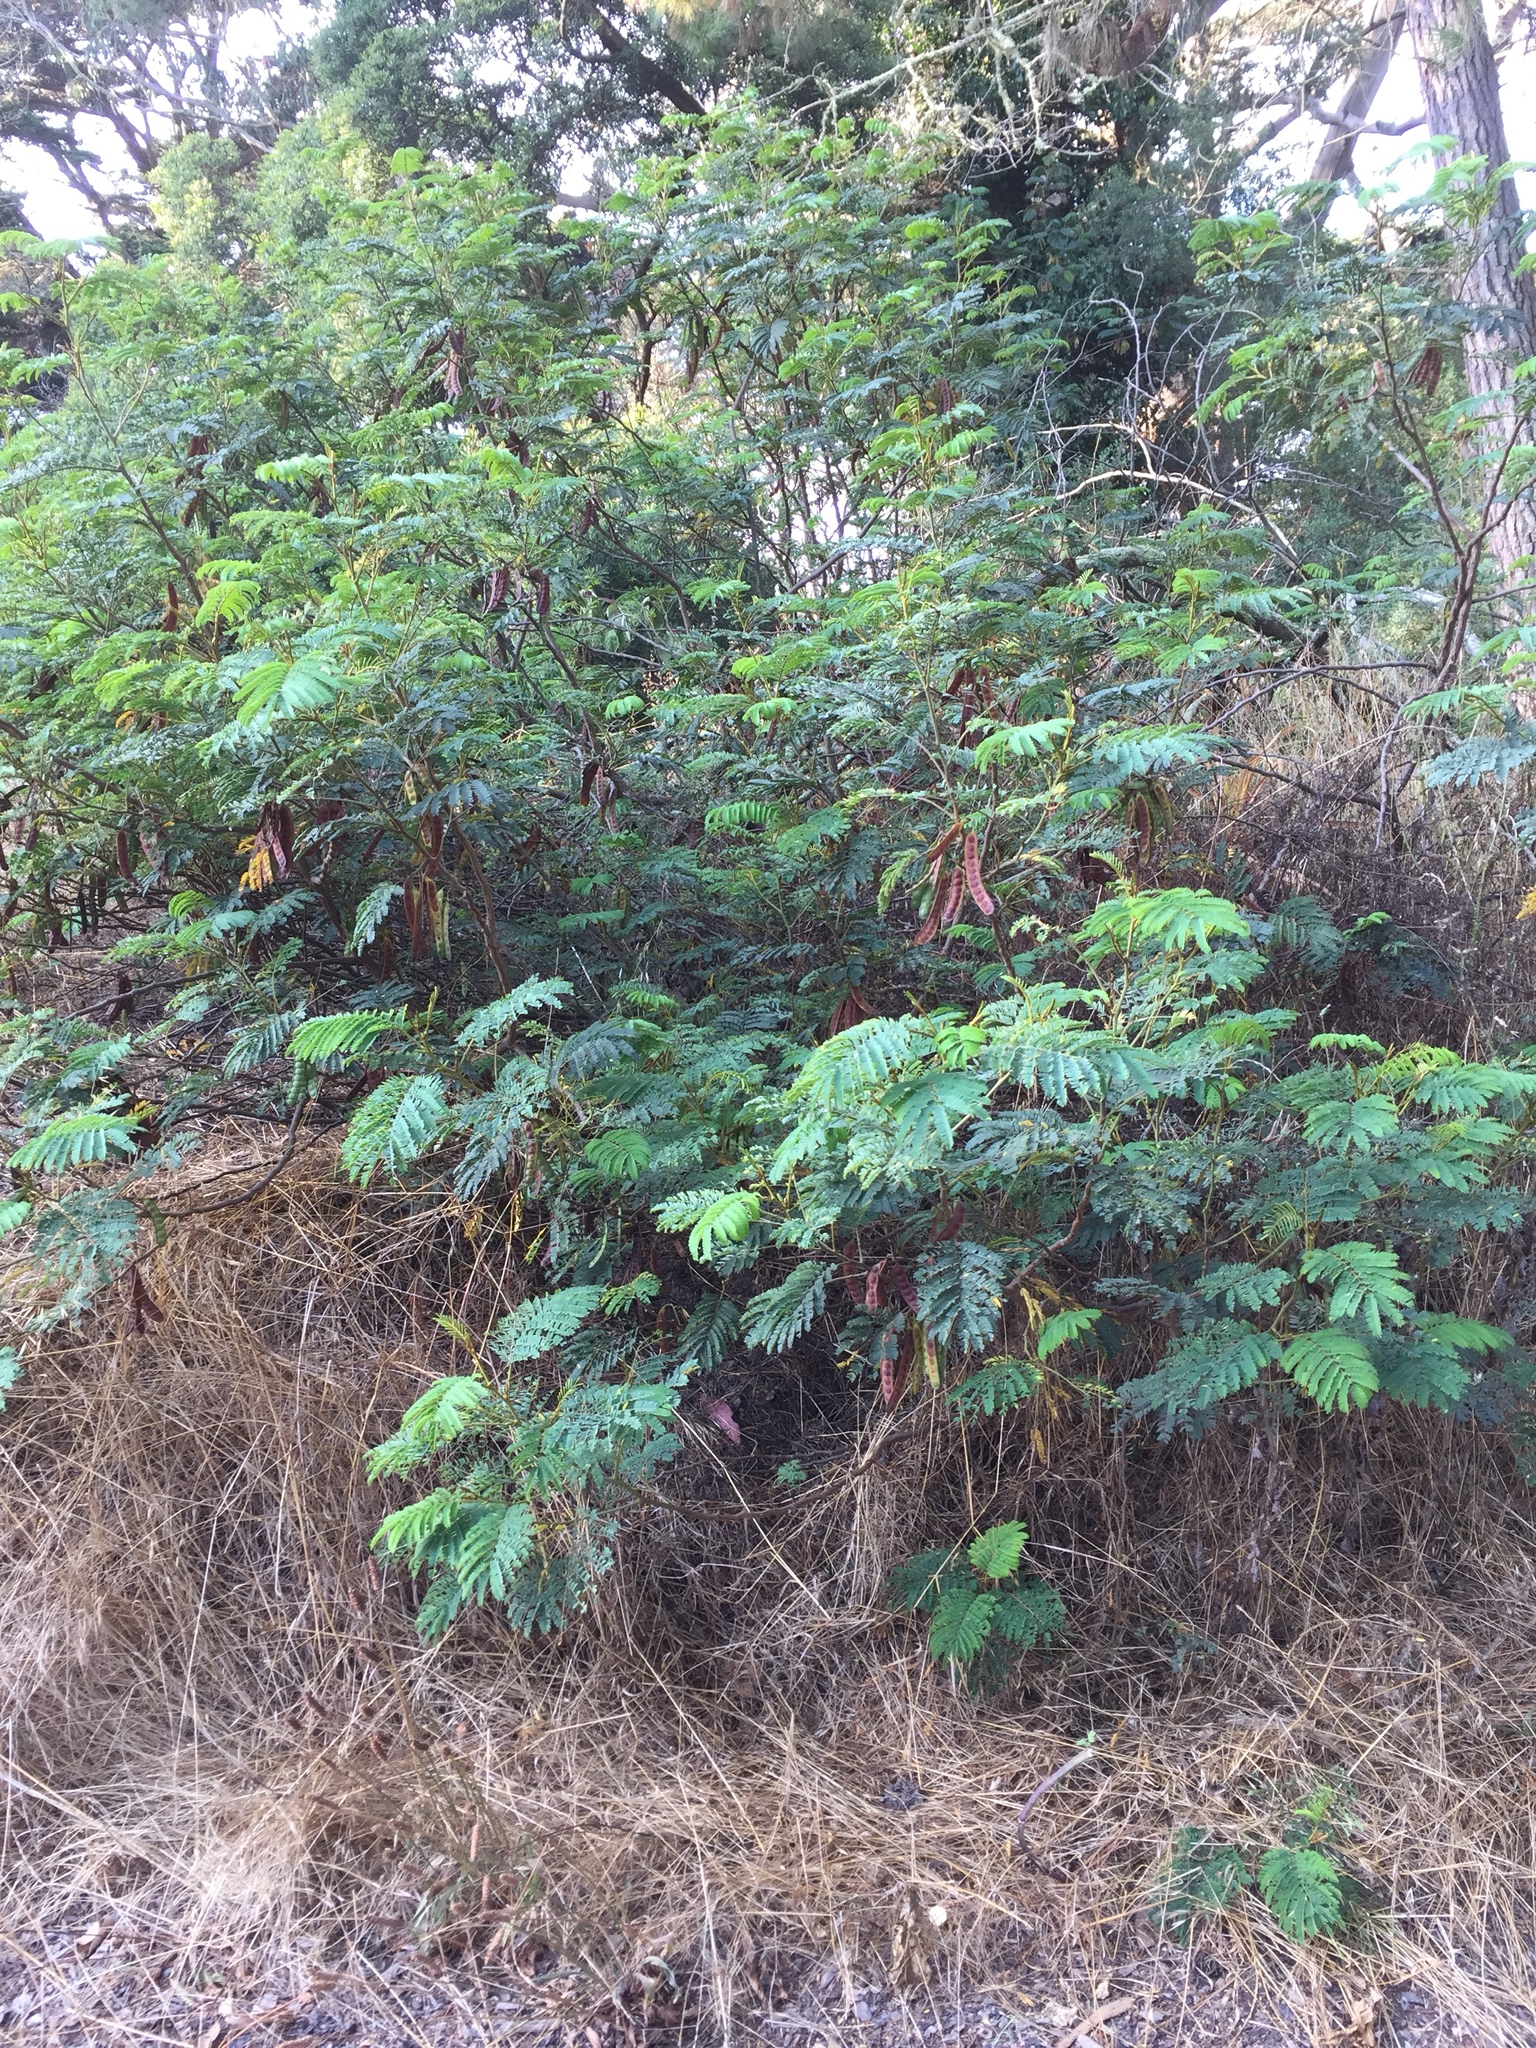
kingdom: Plantae
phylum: Tracheophyta
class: Magnoliopsida
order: Fabales
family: Fabaceae
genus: Paraserianthes
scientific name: Paraserianthes lophantha
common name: Plume albizia
